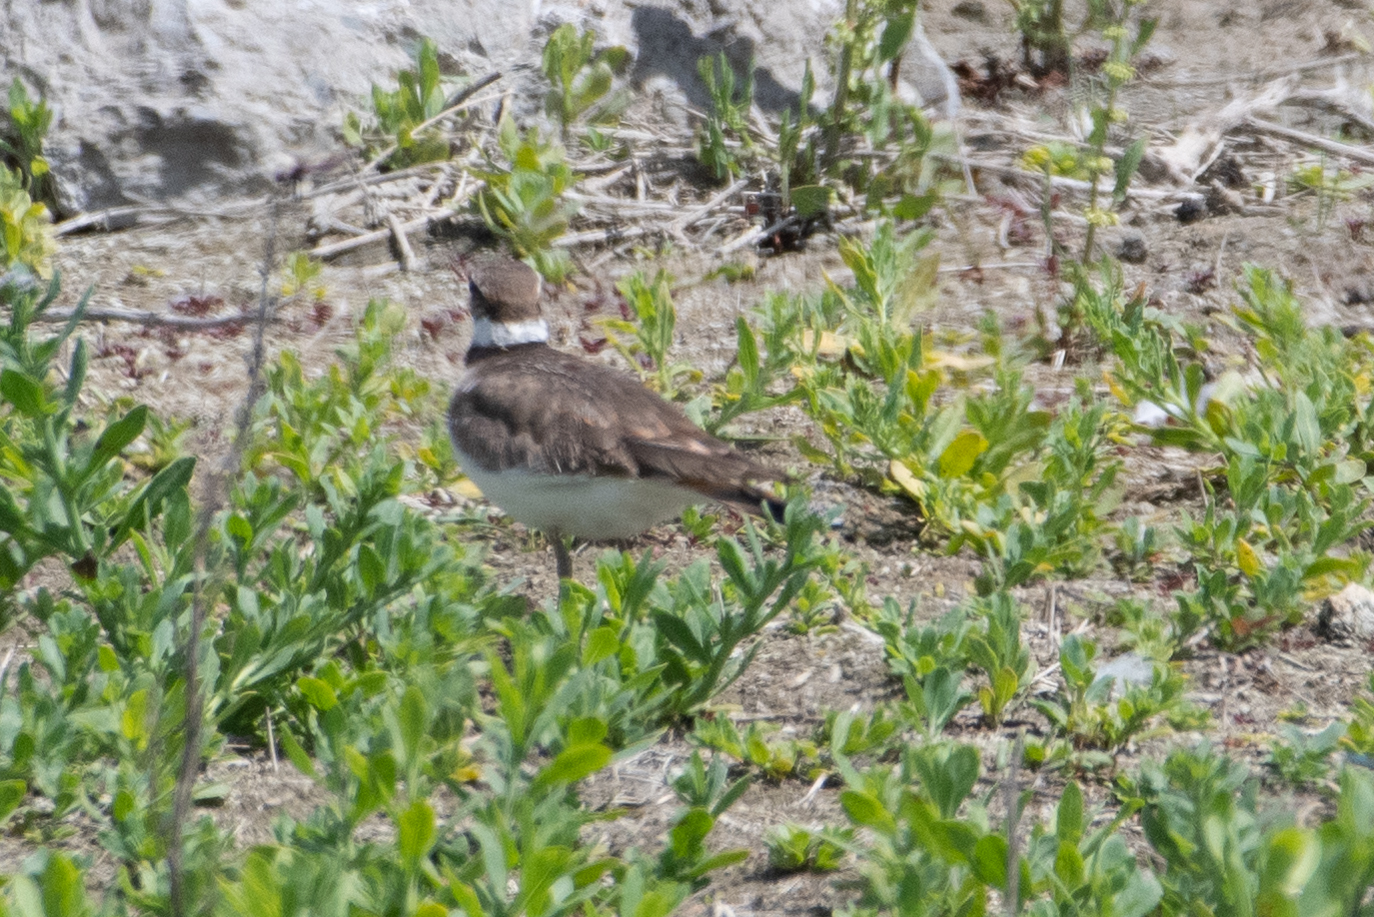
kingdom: Animalia
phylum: Chordata
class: Aves
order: Charadriiformes
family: Charadriidae
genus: Charadrius
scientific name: Charadrius vociferus
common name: Killdeer
